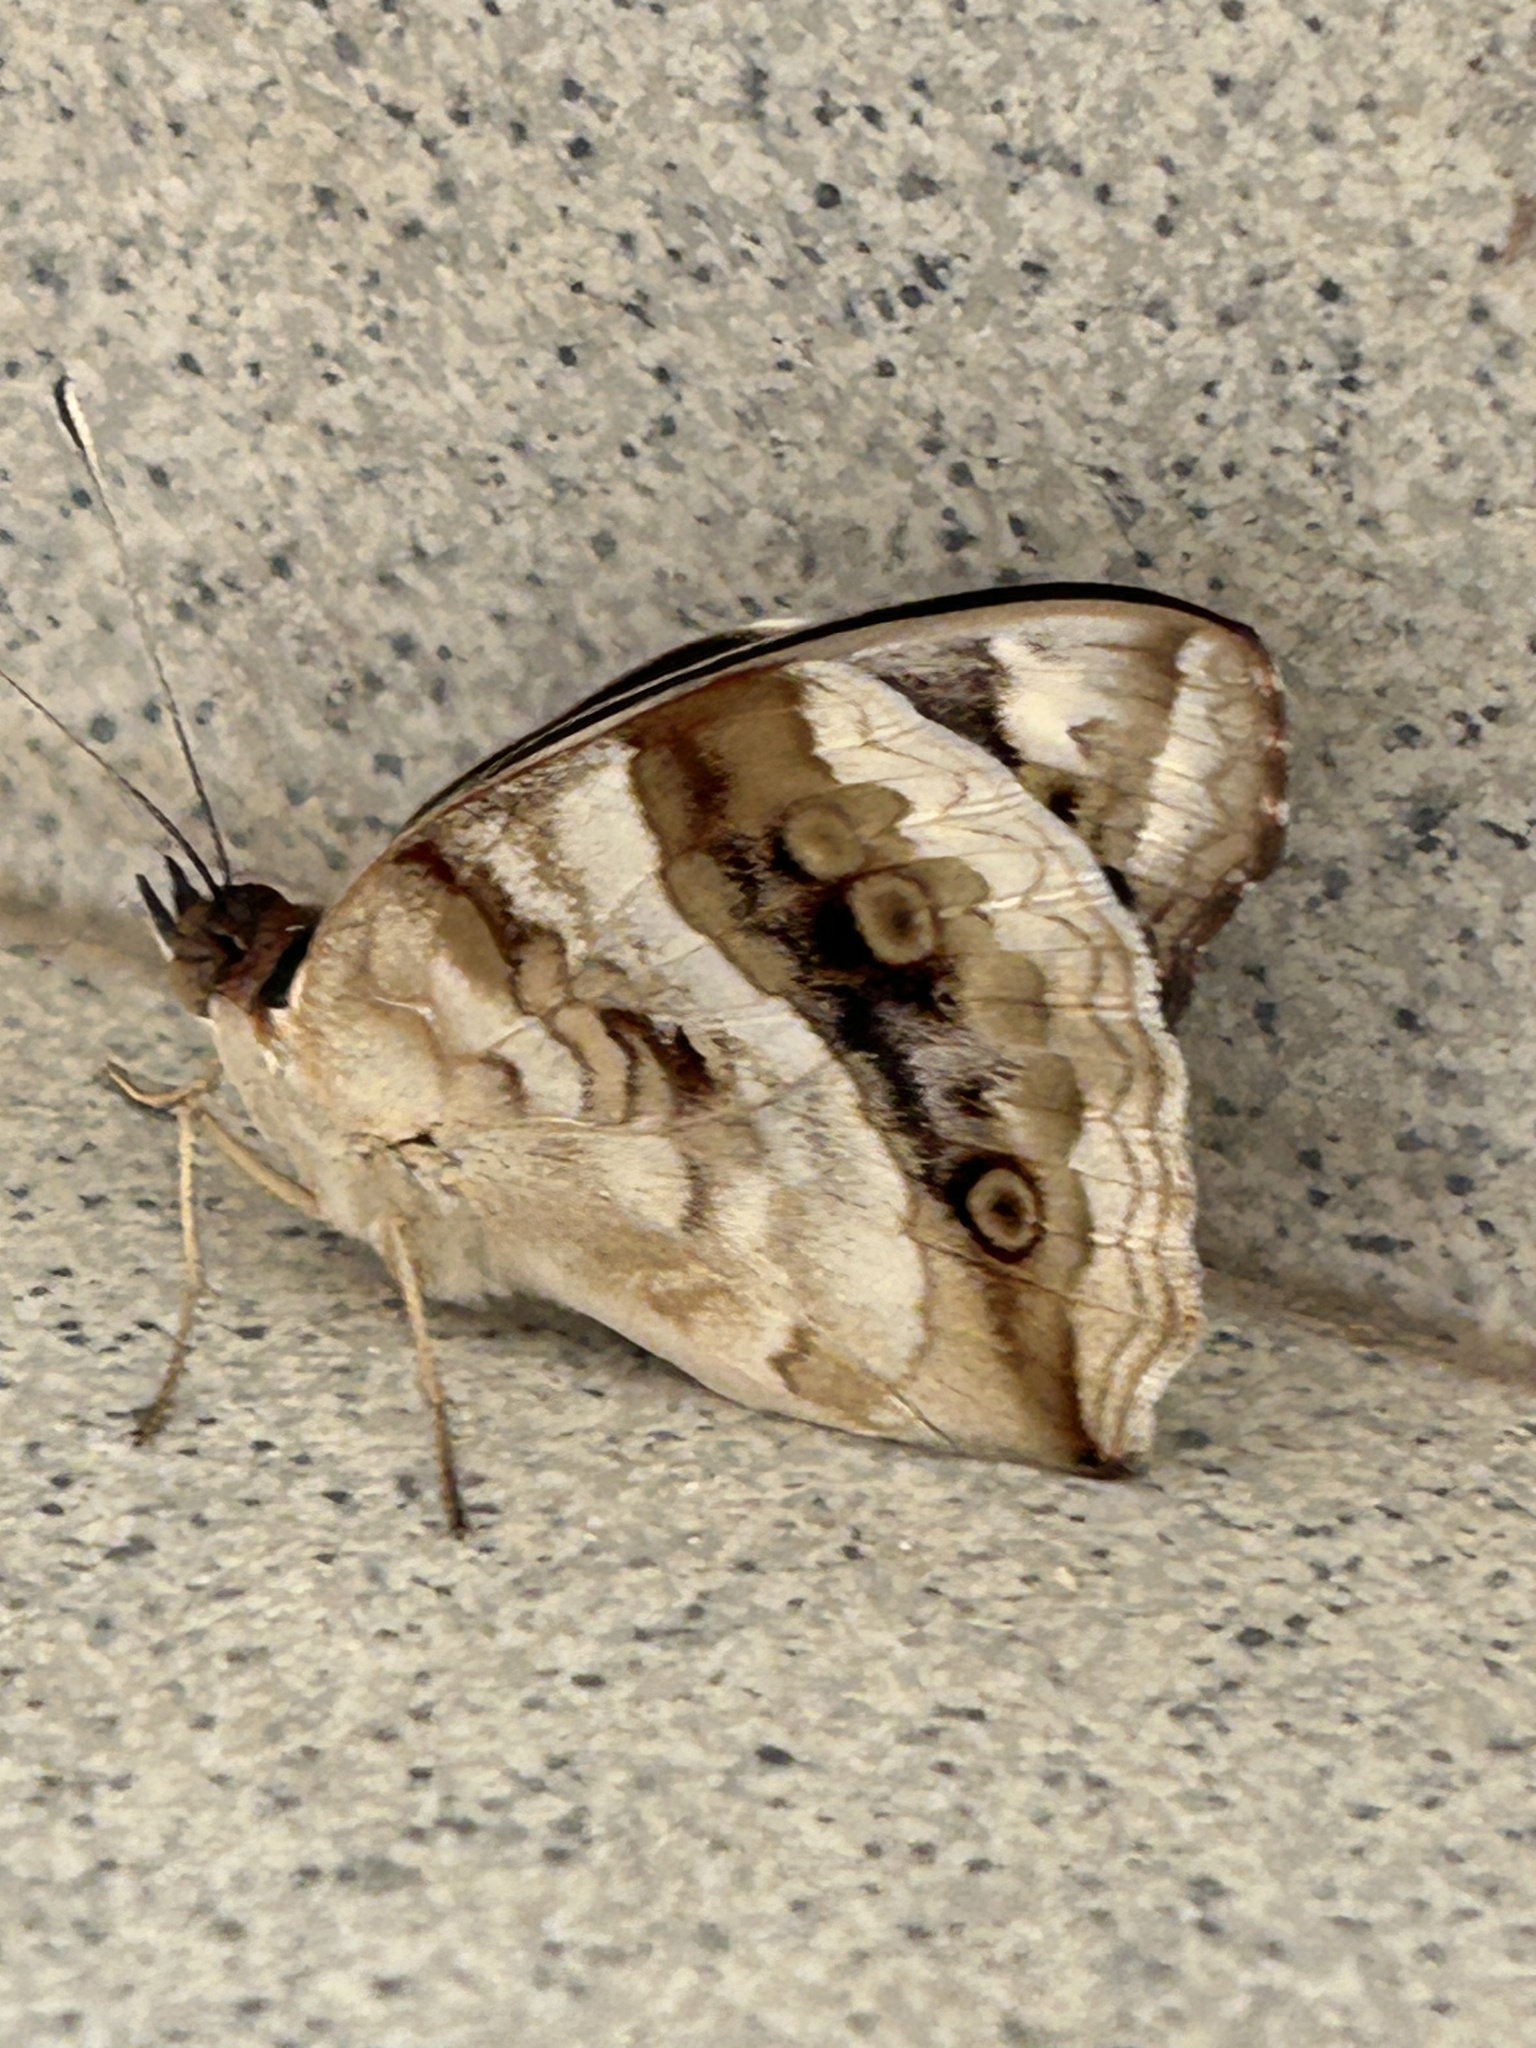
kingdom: Animalia
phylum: Arthropoda
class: Insecta
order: Lepidoptera
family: Nymphalidae
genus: Junonia
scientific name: Junonia oenone
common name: Dark blue pansy
